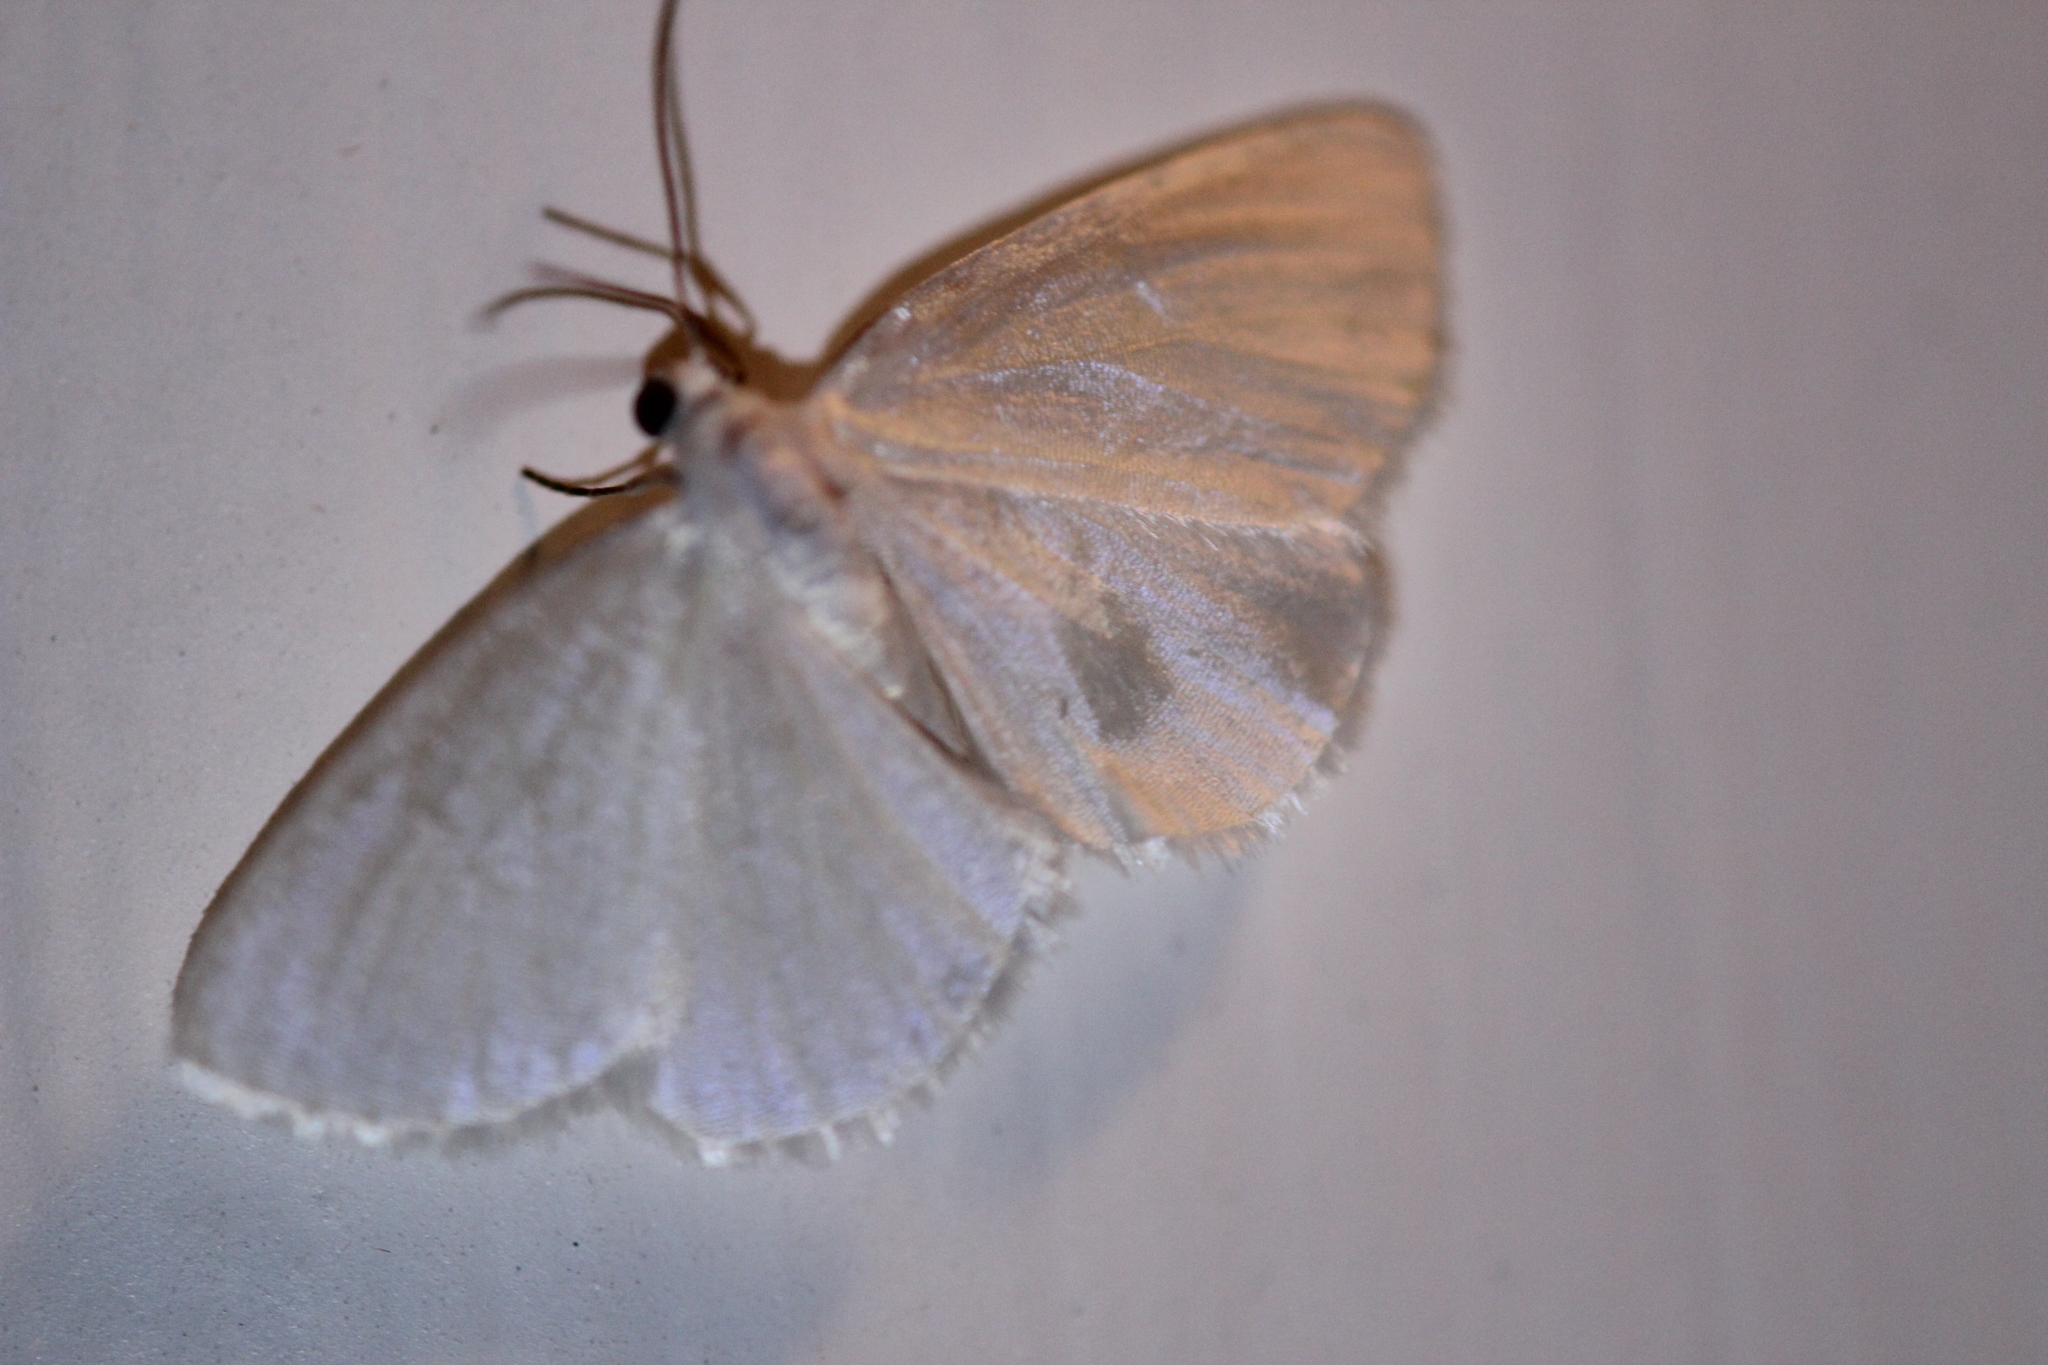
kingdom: Animalia
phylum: Arthropoda
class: Insecta
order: Lepidoptera
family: Geometridae
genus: Lomographa
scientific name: Lomographa vestaliata
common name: White spring moth
